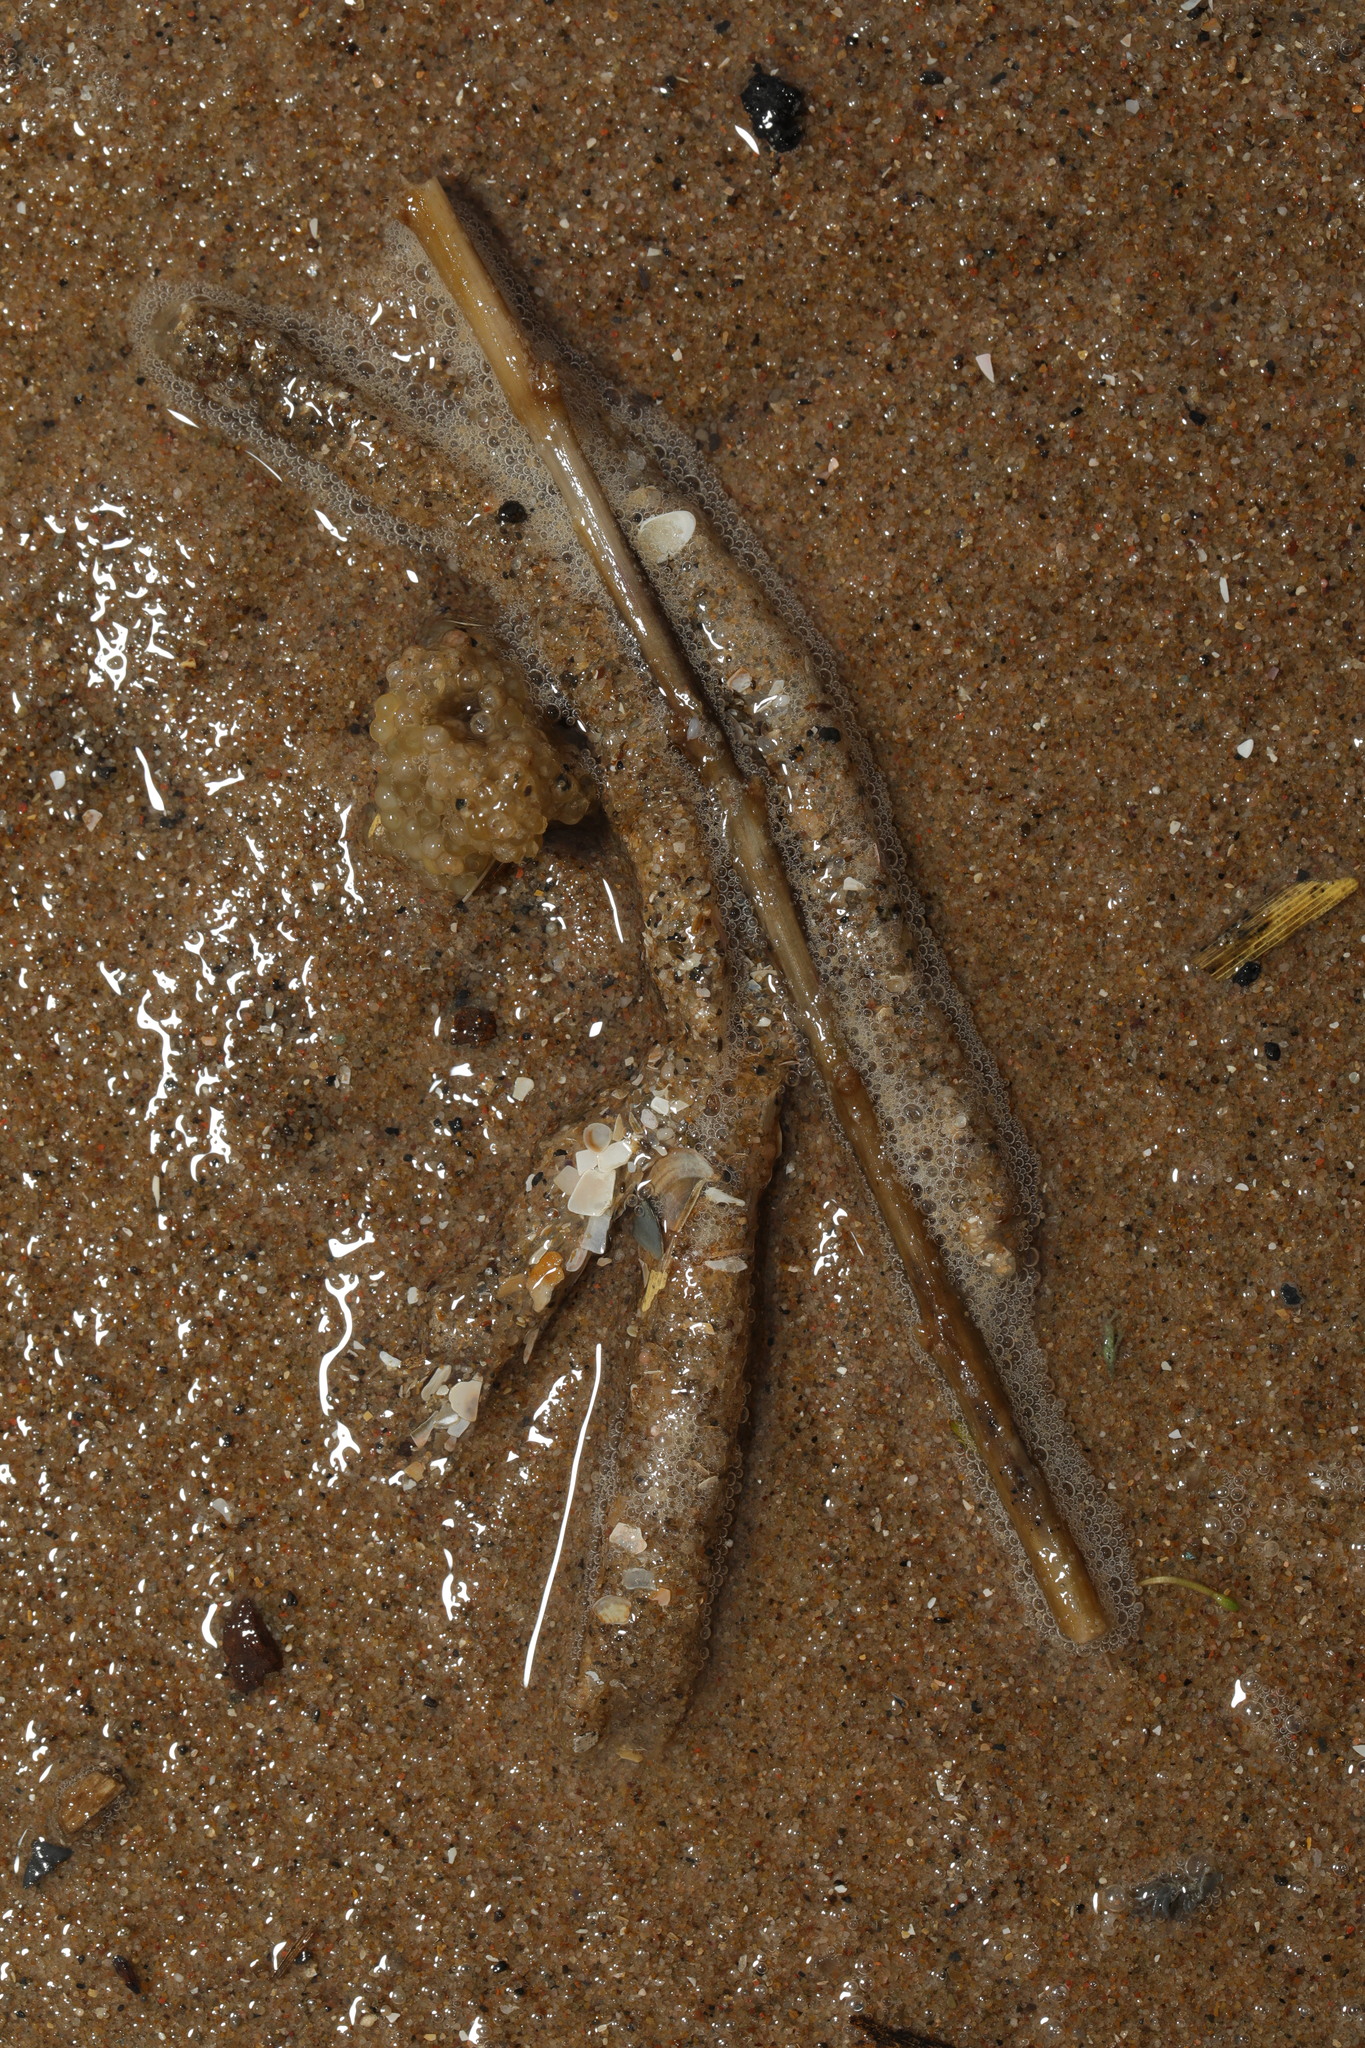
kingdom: Animalia
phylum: Annelida
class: Polychaeta
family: Terebellidae
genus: Lanice
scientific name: Lanice conchilega
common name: Sand mason
